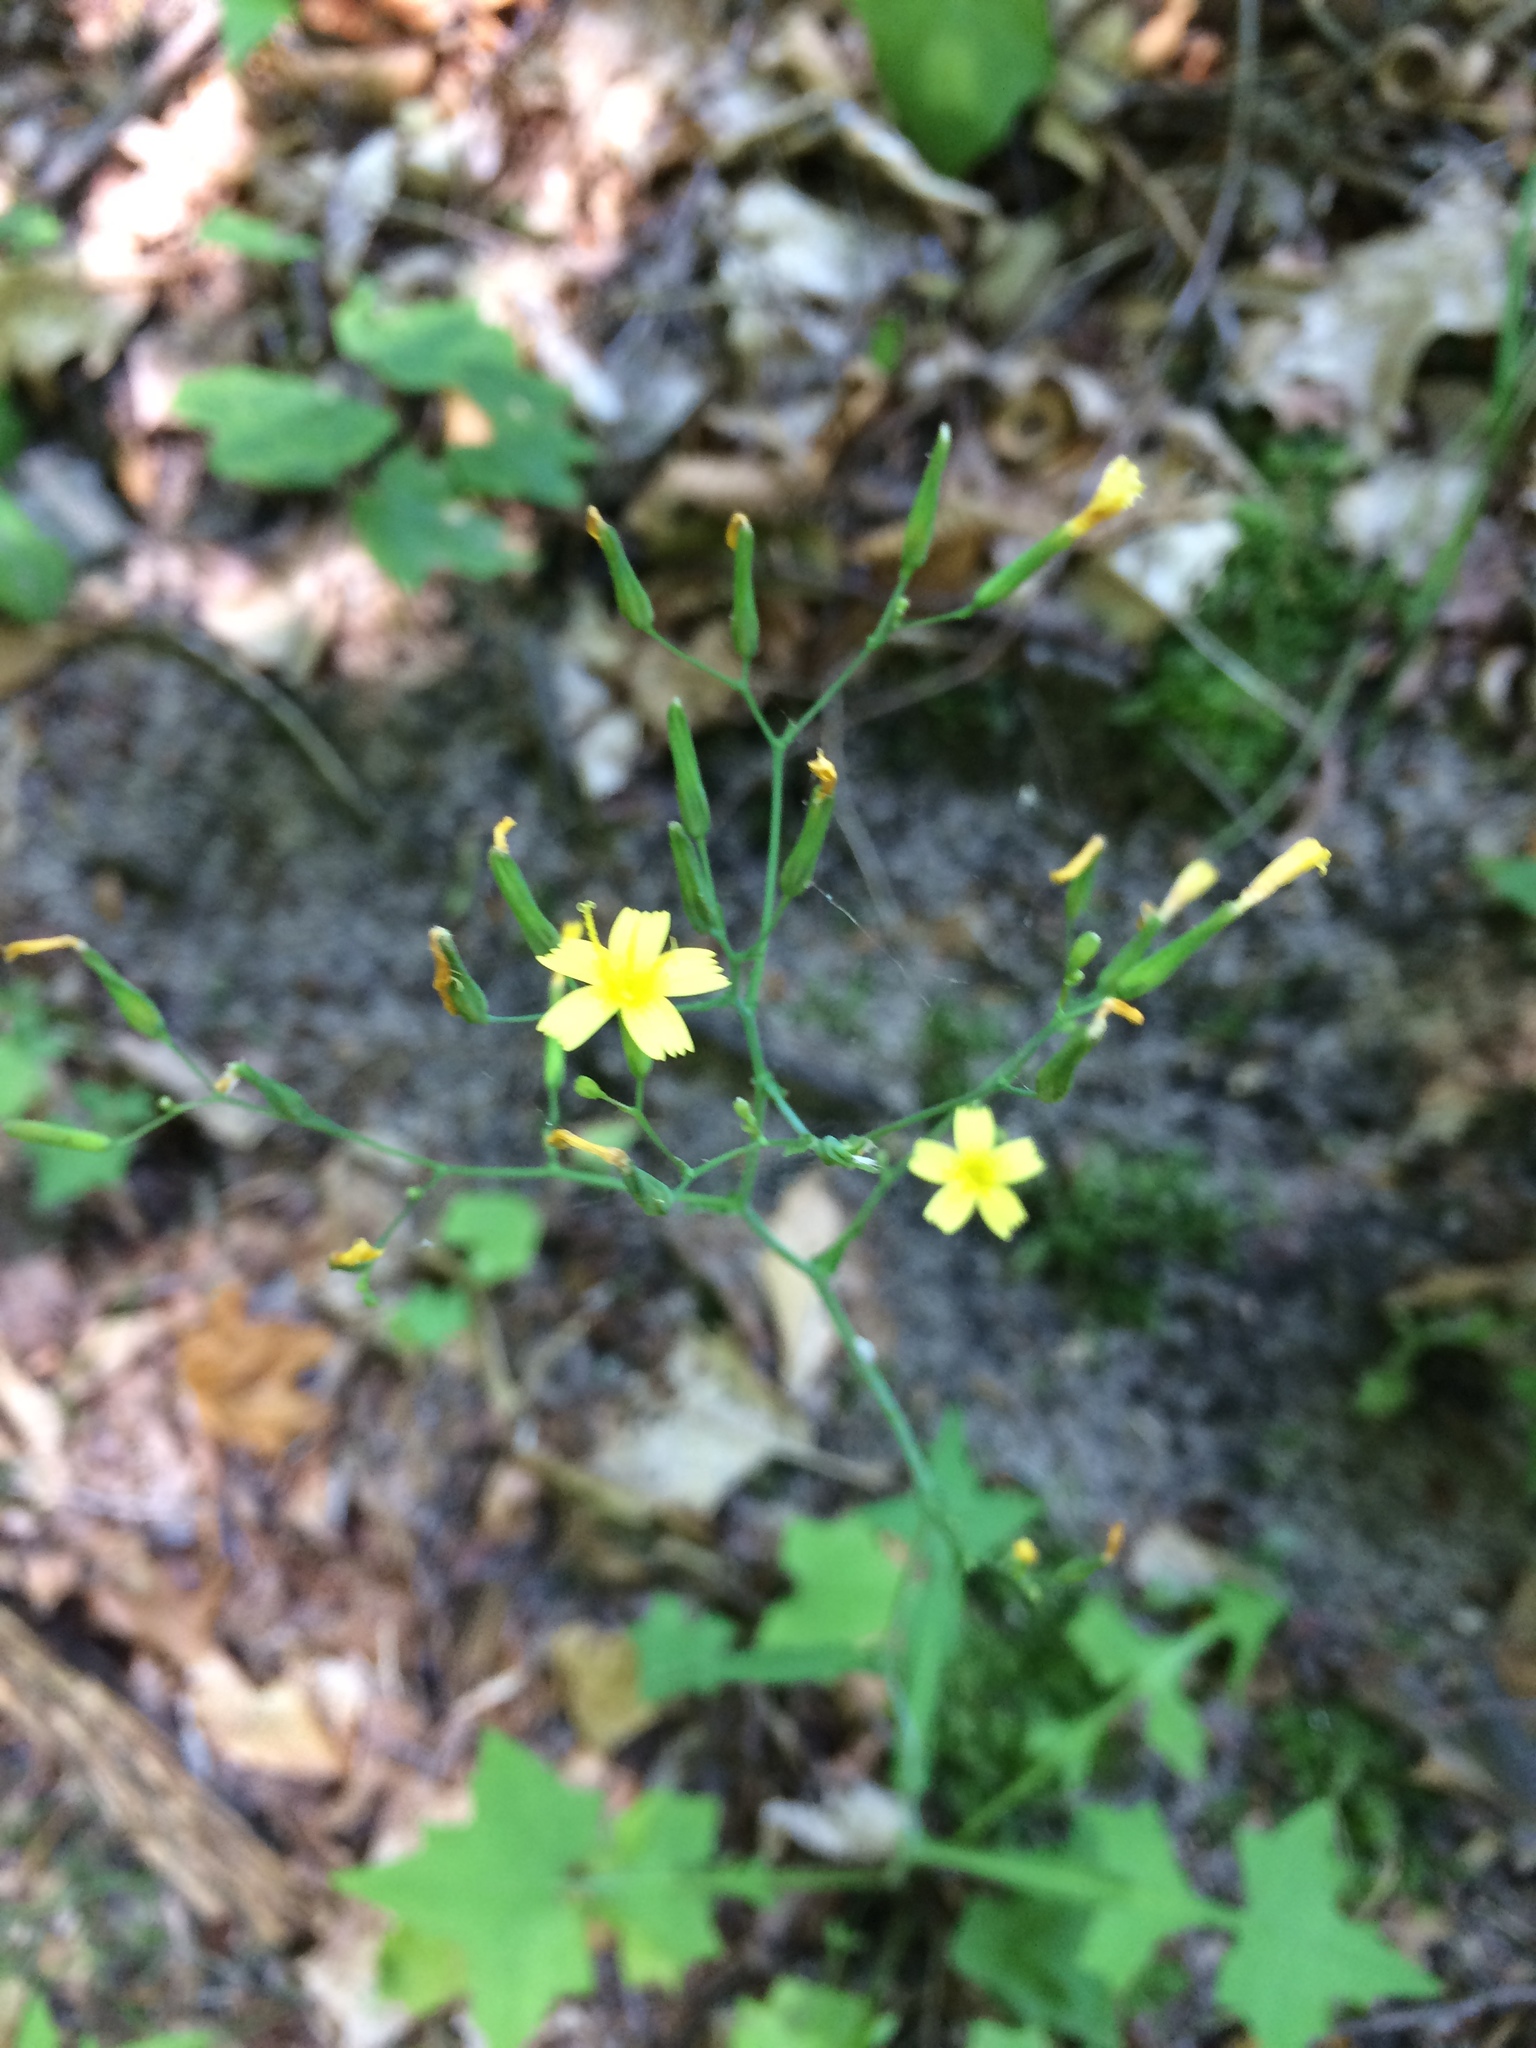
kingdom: Plantae
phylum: Tracheophyta
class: Magnoliopsida
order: Asterales
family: Asteraceae
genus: Mycelis
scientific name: Mycelis muralis
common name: Wall lettuce
